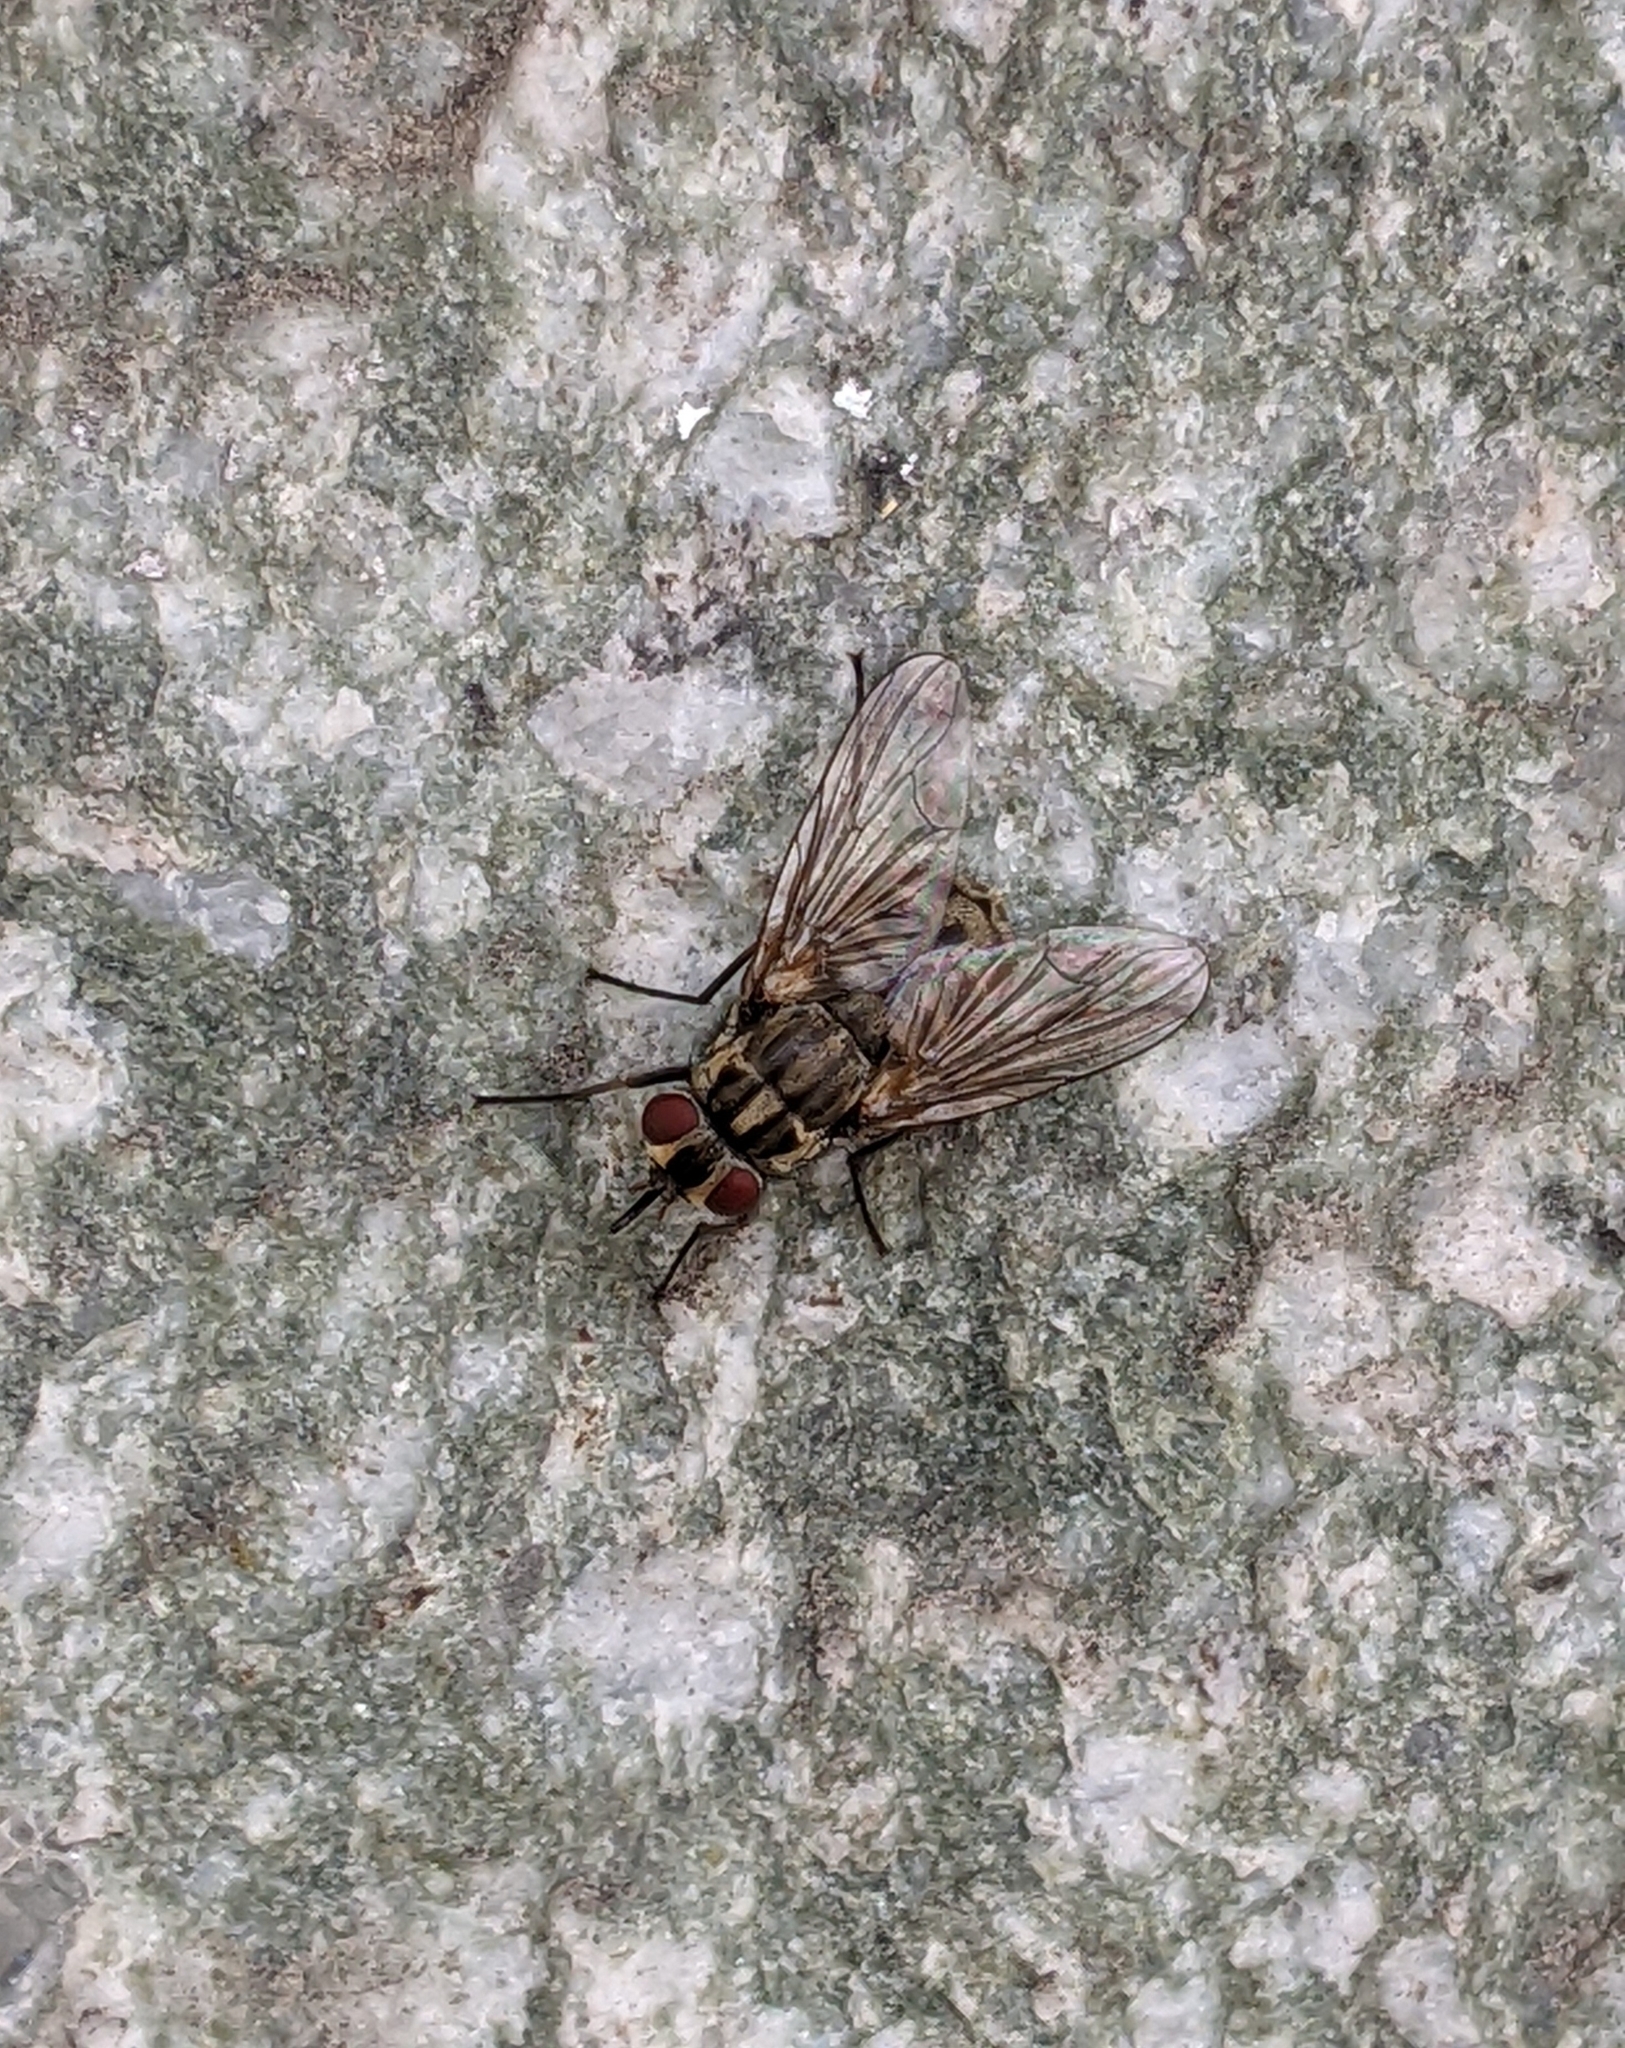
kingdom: Animalia
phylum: Arthropoda
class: Insecta
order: Diptera
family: Muscidae
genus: Stomoxys
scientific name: Stomoxys calcitrans
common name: Stable fly
